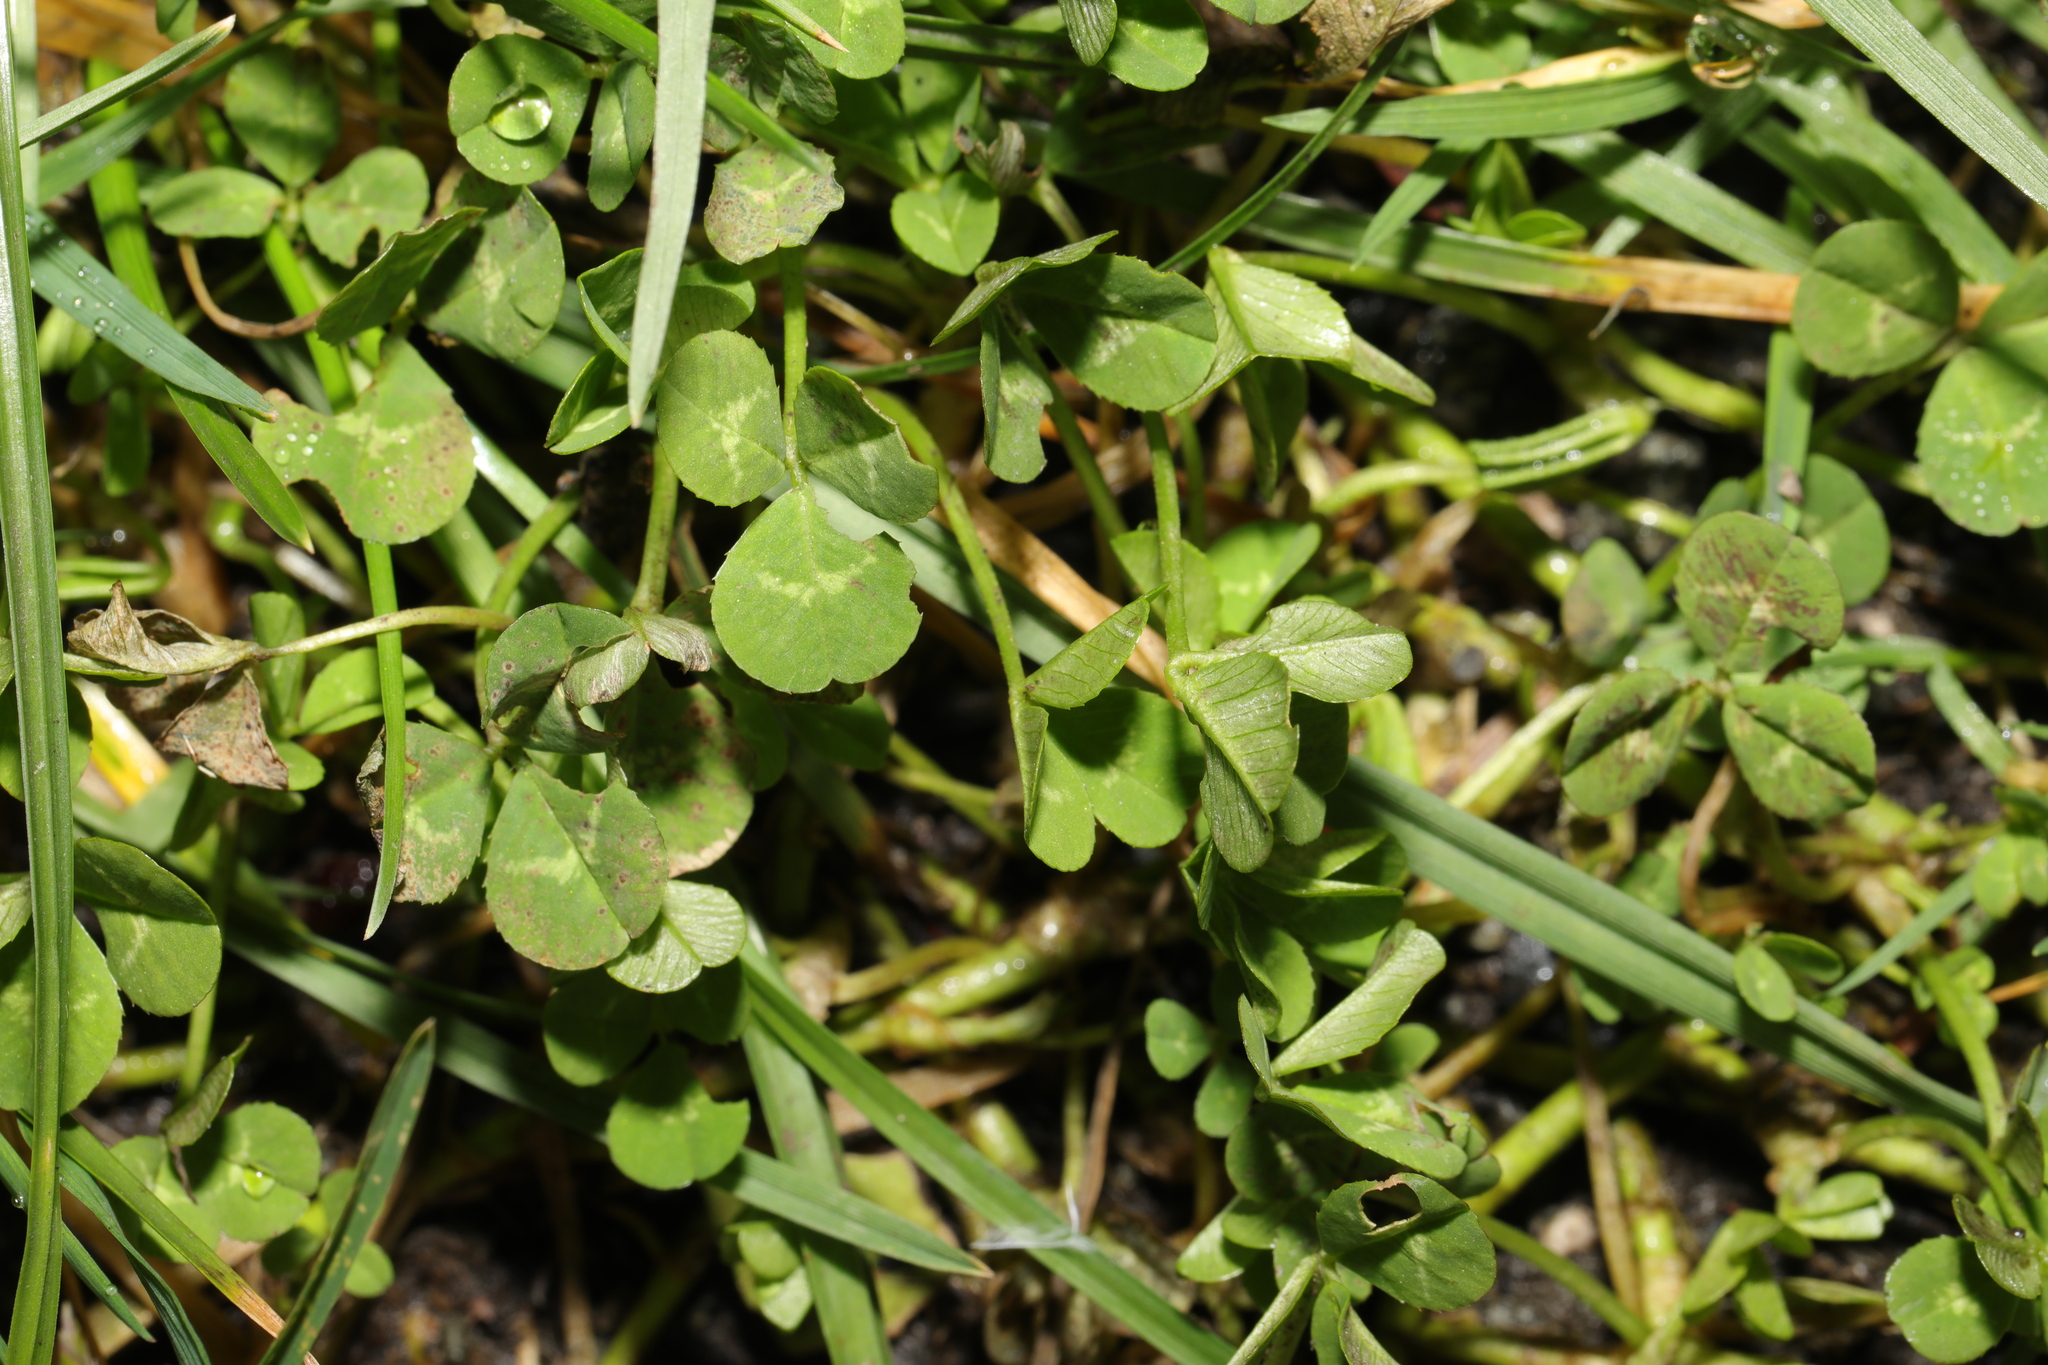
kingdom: Plantae
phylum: Tracheophyta
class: Magnoliopsida
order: Fabales
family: Fabaceae
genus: Trifolium
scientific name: Trifolium repens
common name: White clover
